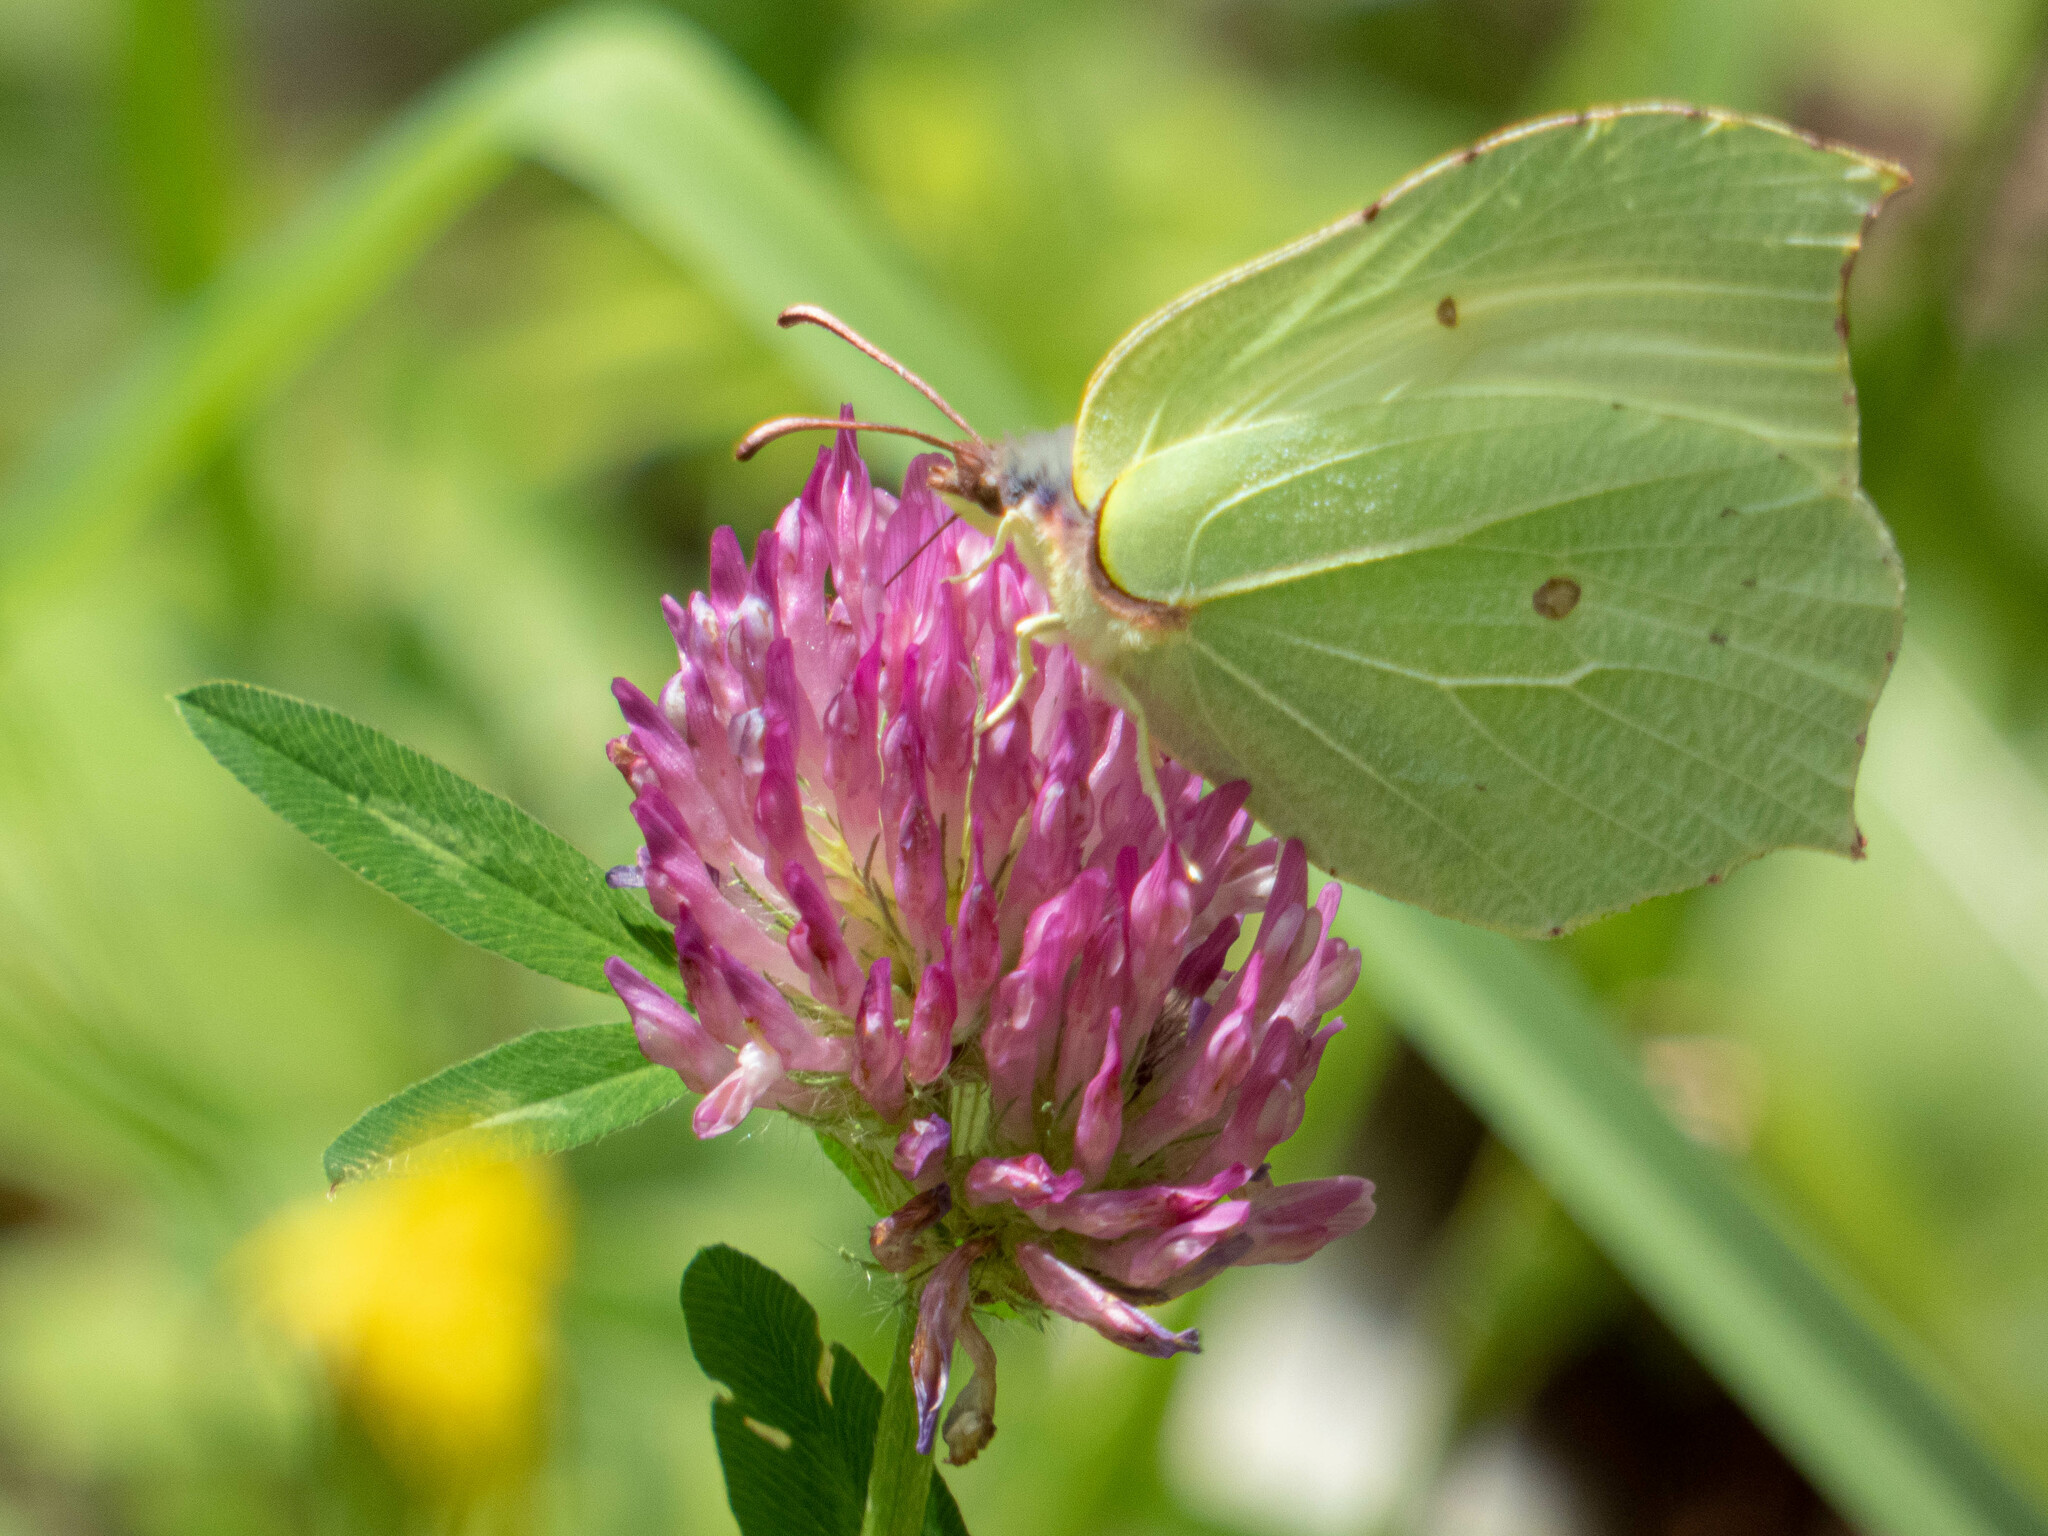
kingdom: Animalia
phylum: Arthropoda
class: Insecta
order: Lepidoptera
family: Pieridae
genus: Gonepteryx
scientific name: Gonepteryx rhamni
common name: Brimstone
